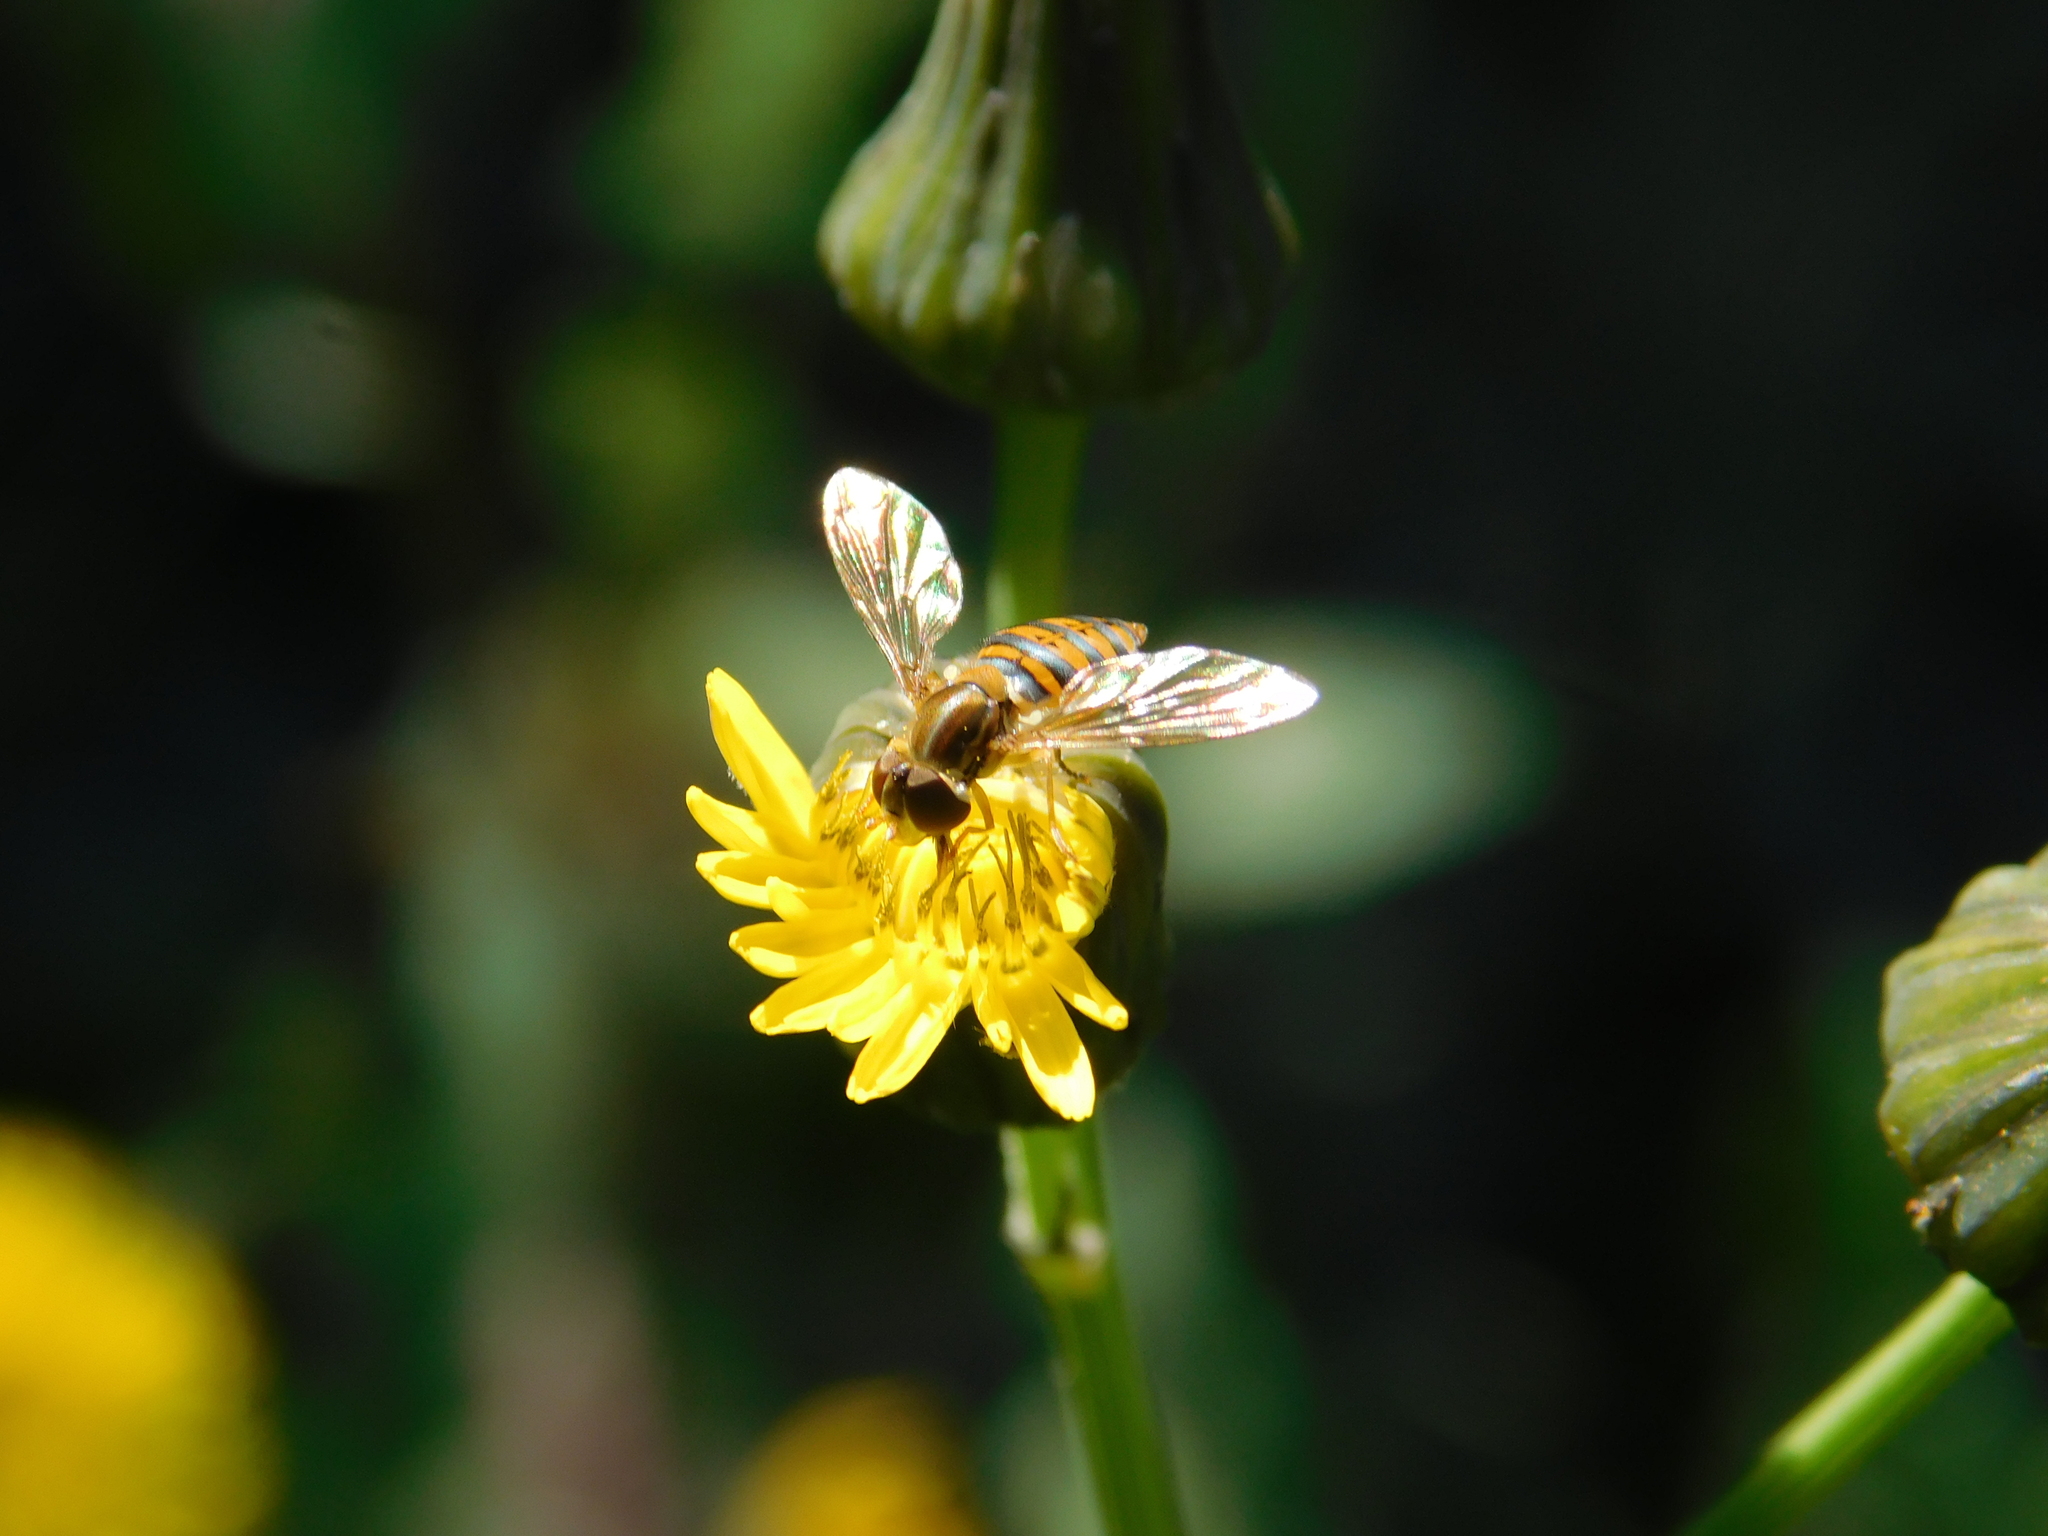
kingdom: Animalia
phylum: Arthropoda
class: Insecta
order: Diptera
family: Syrphidae
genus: Toxomerus
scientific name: Toxomerus
